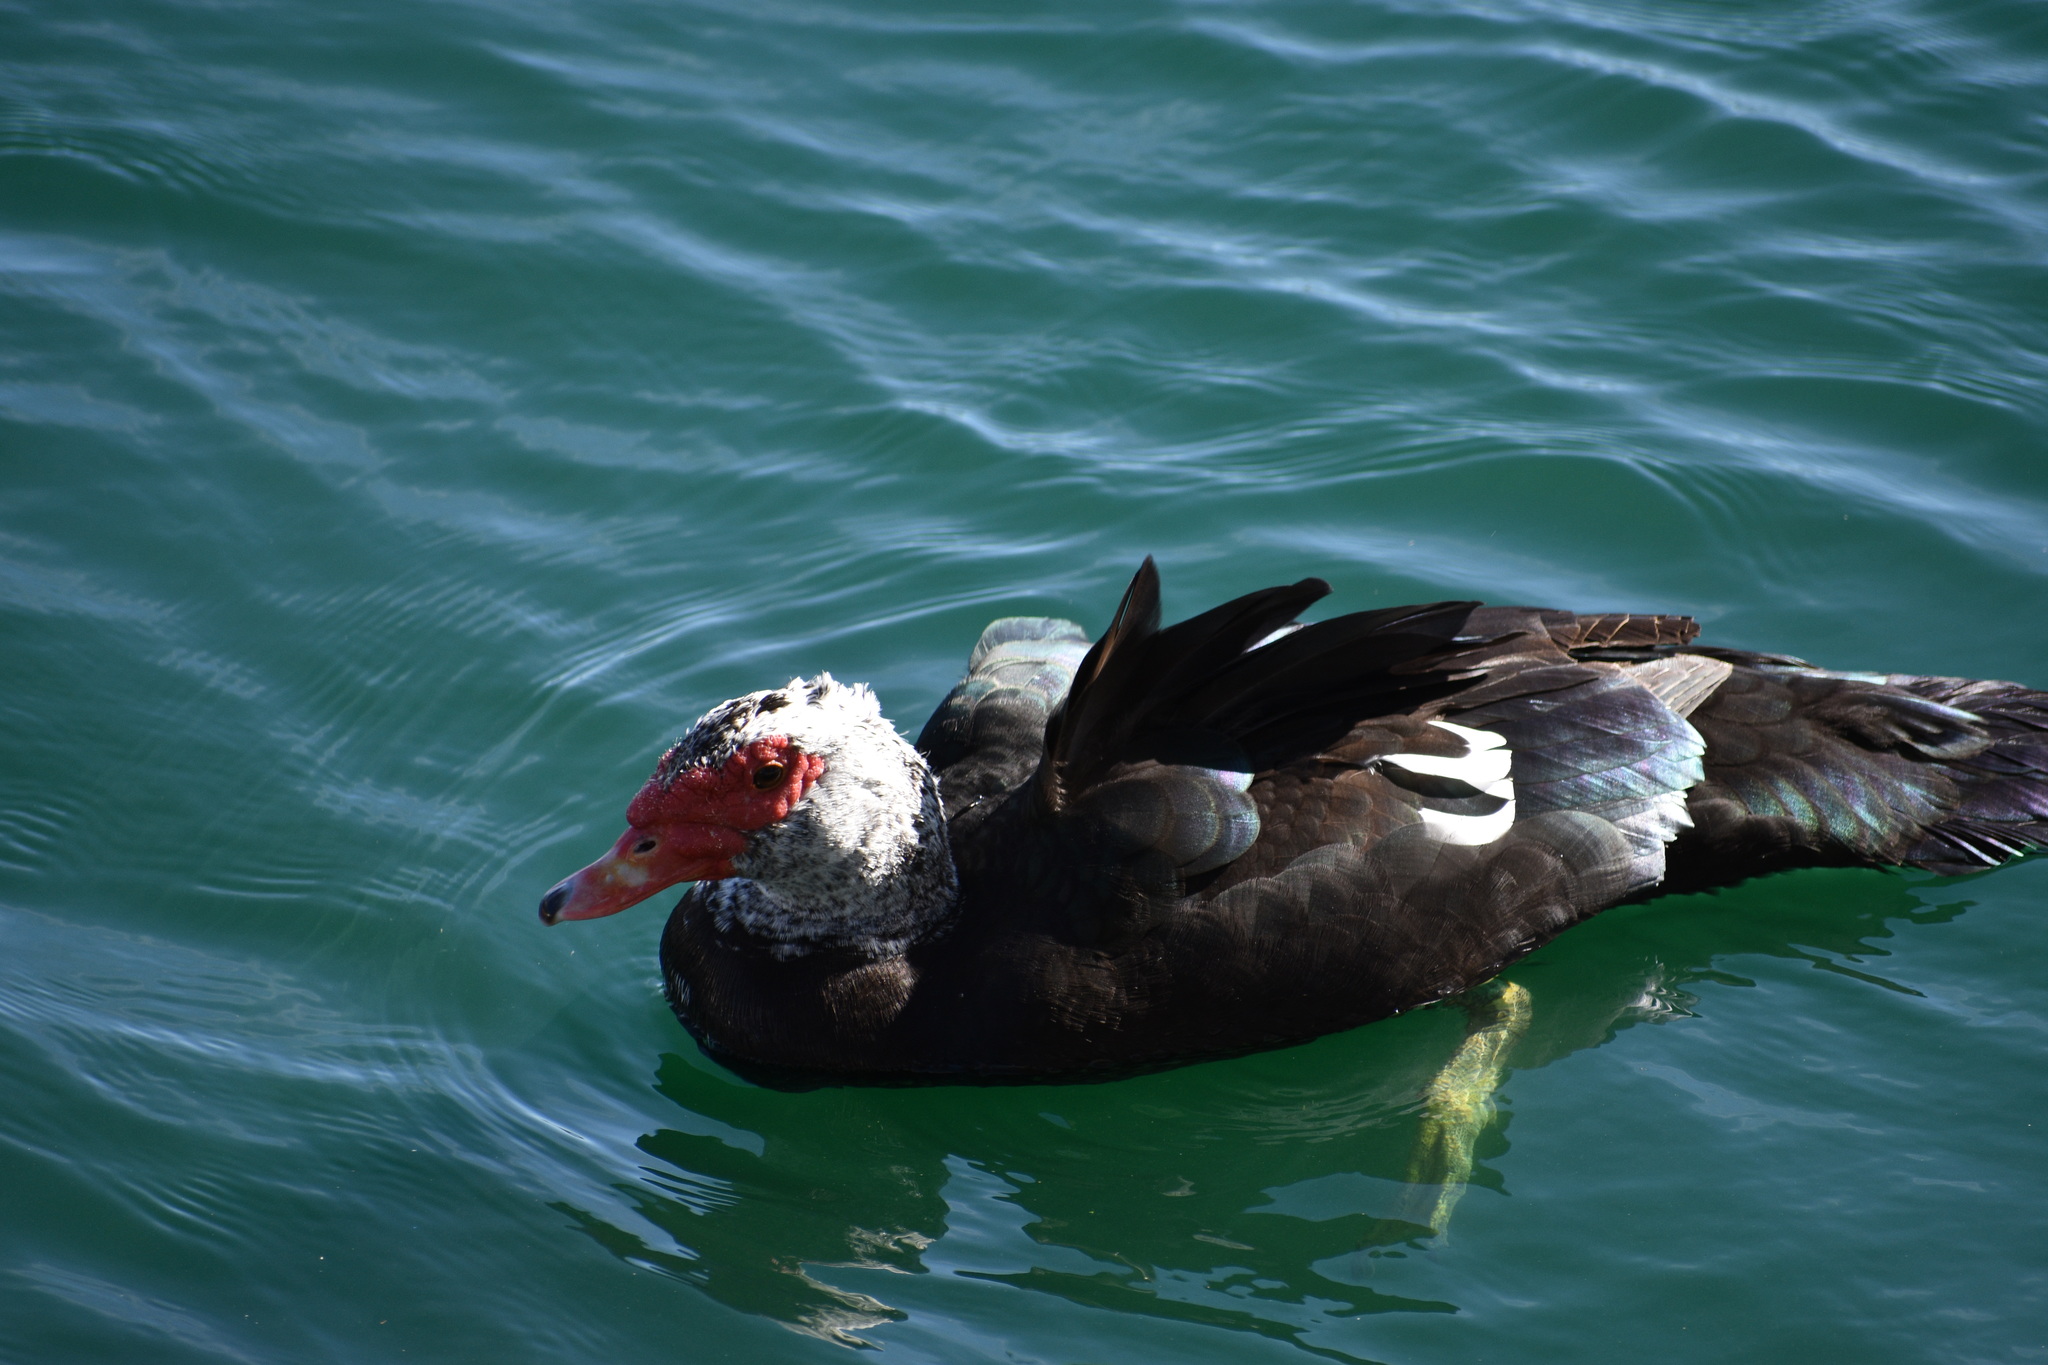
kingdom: Animalia
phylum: Chordata
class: Aves
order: Anseriformes
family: Anatidae
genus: Cairina
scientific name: Cairina moschata
